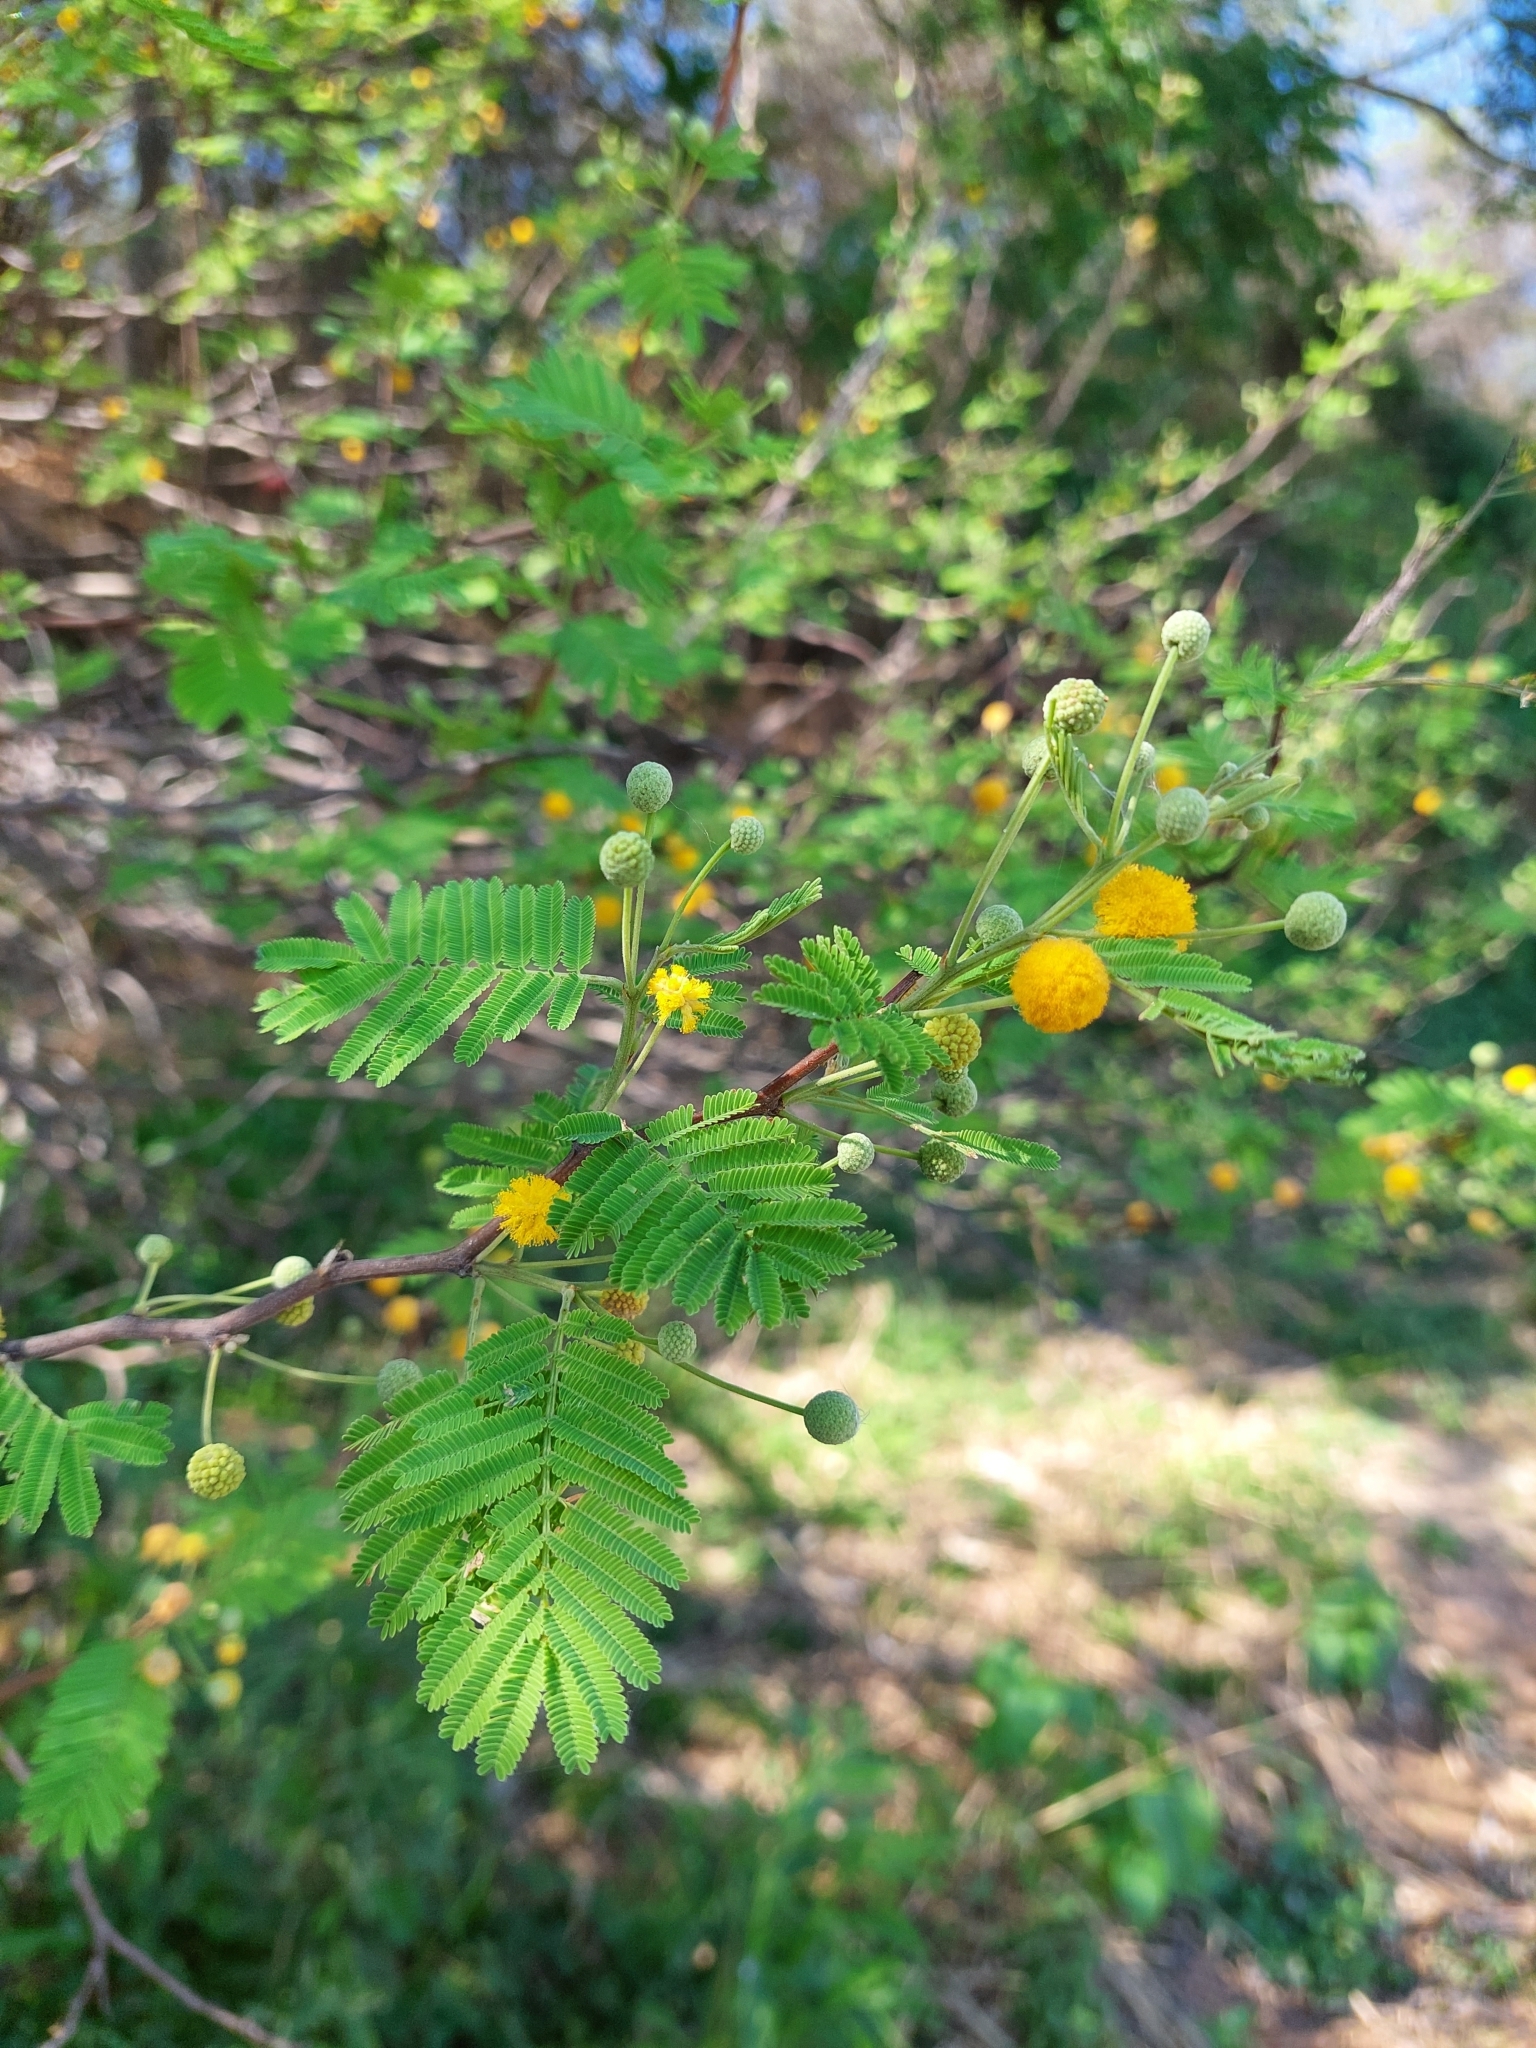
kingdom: Plantae
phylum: Tracheophyta
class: Magnoliopsida
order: Fabales
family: Fabaceae
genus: Vachellia
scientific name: Vachellia aroma
